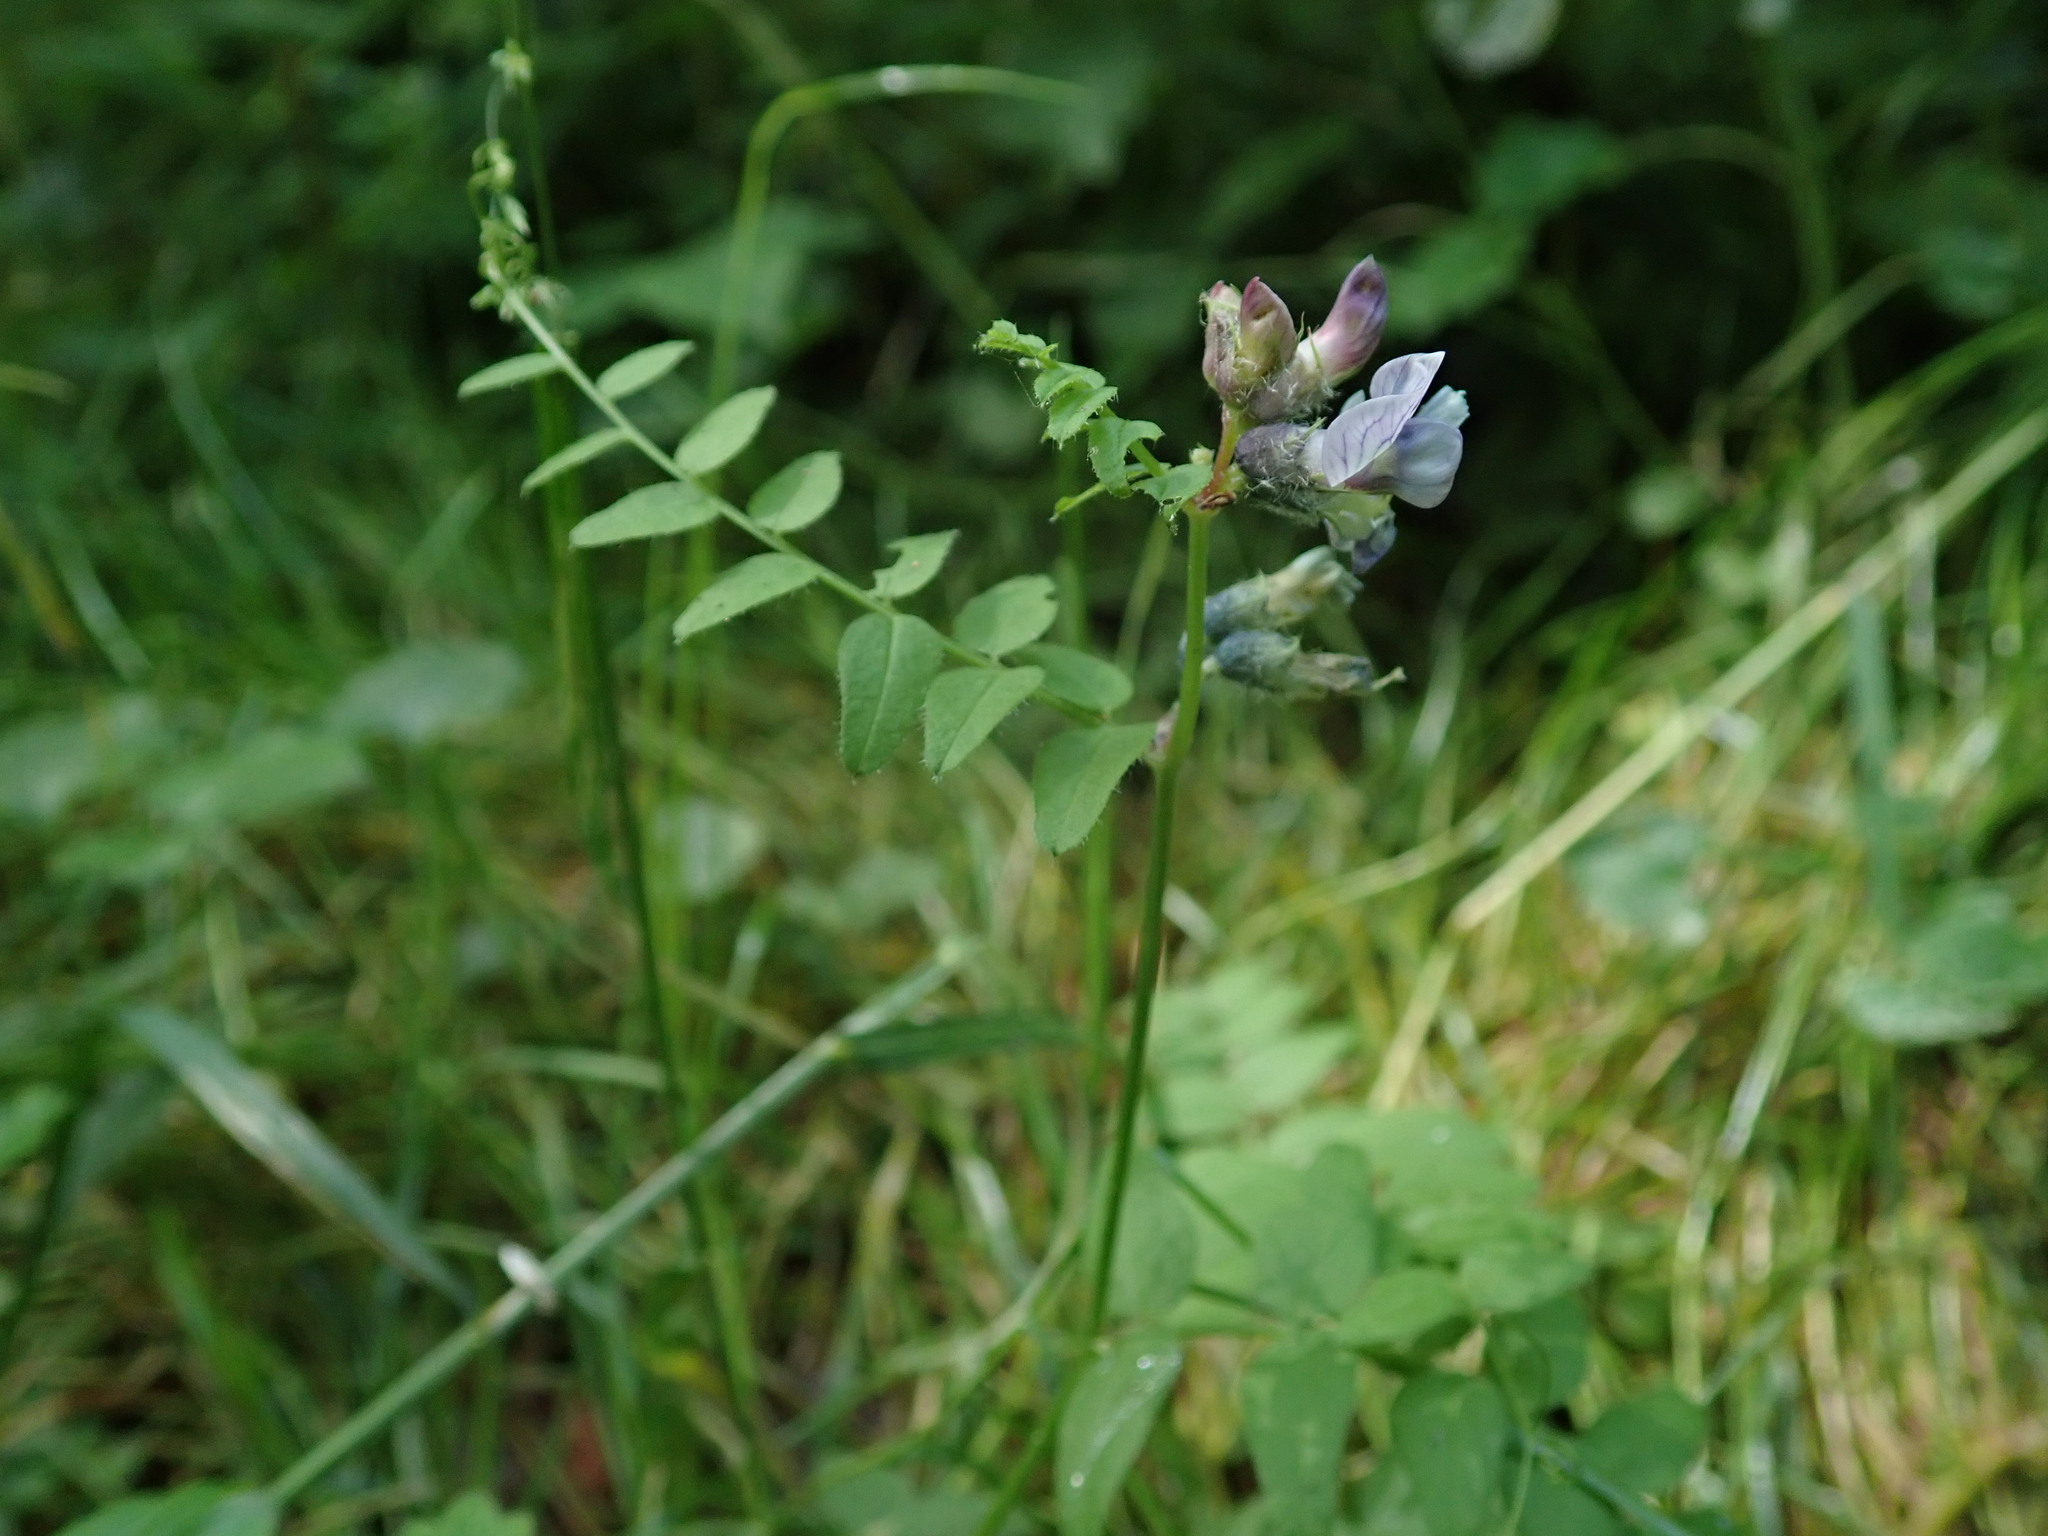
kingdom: Plantae
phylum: Tracheophyta
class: Magnoliopsida
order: Fabales
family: Fabaceae
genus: Vicia
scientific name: Vicia sepium
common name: Bush vetch
